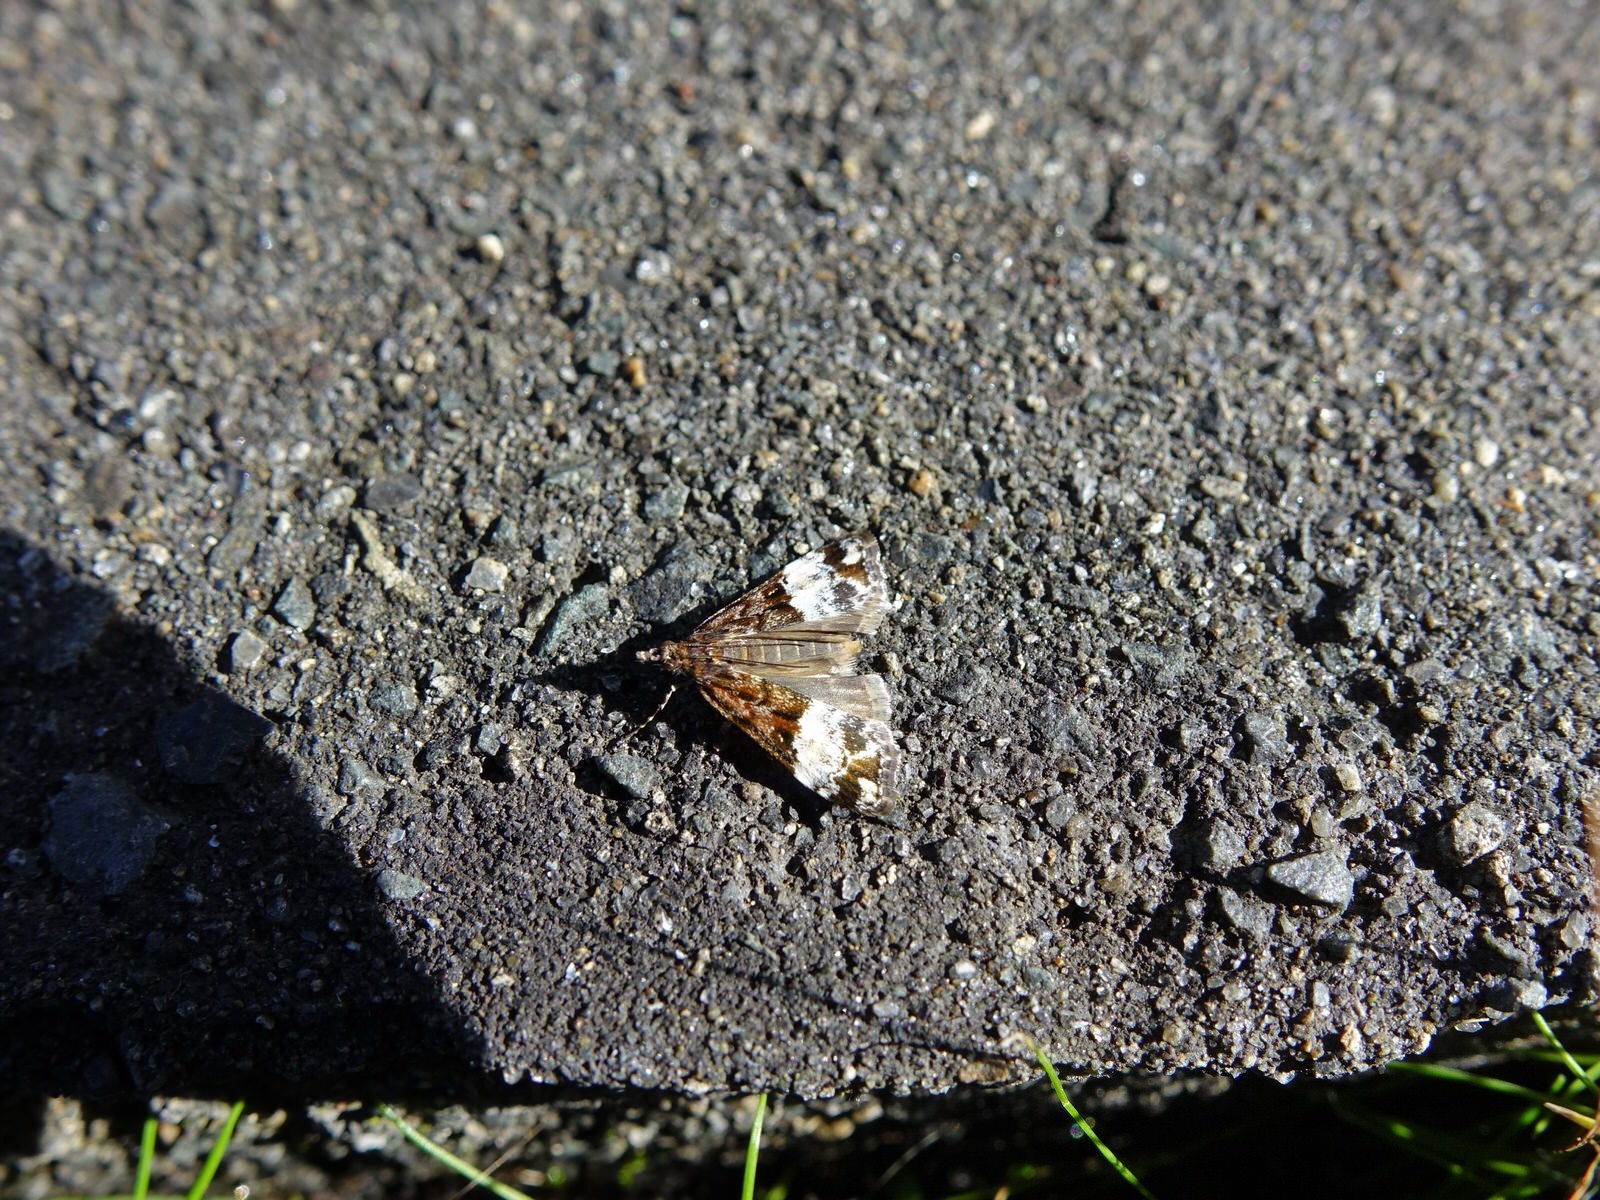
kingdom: Animalia
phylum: Arthropoda
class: Insecta
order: Lepidoptera
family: Crambidae
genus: Scoparia
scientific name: Scoparia minusculalis
